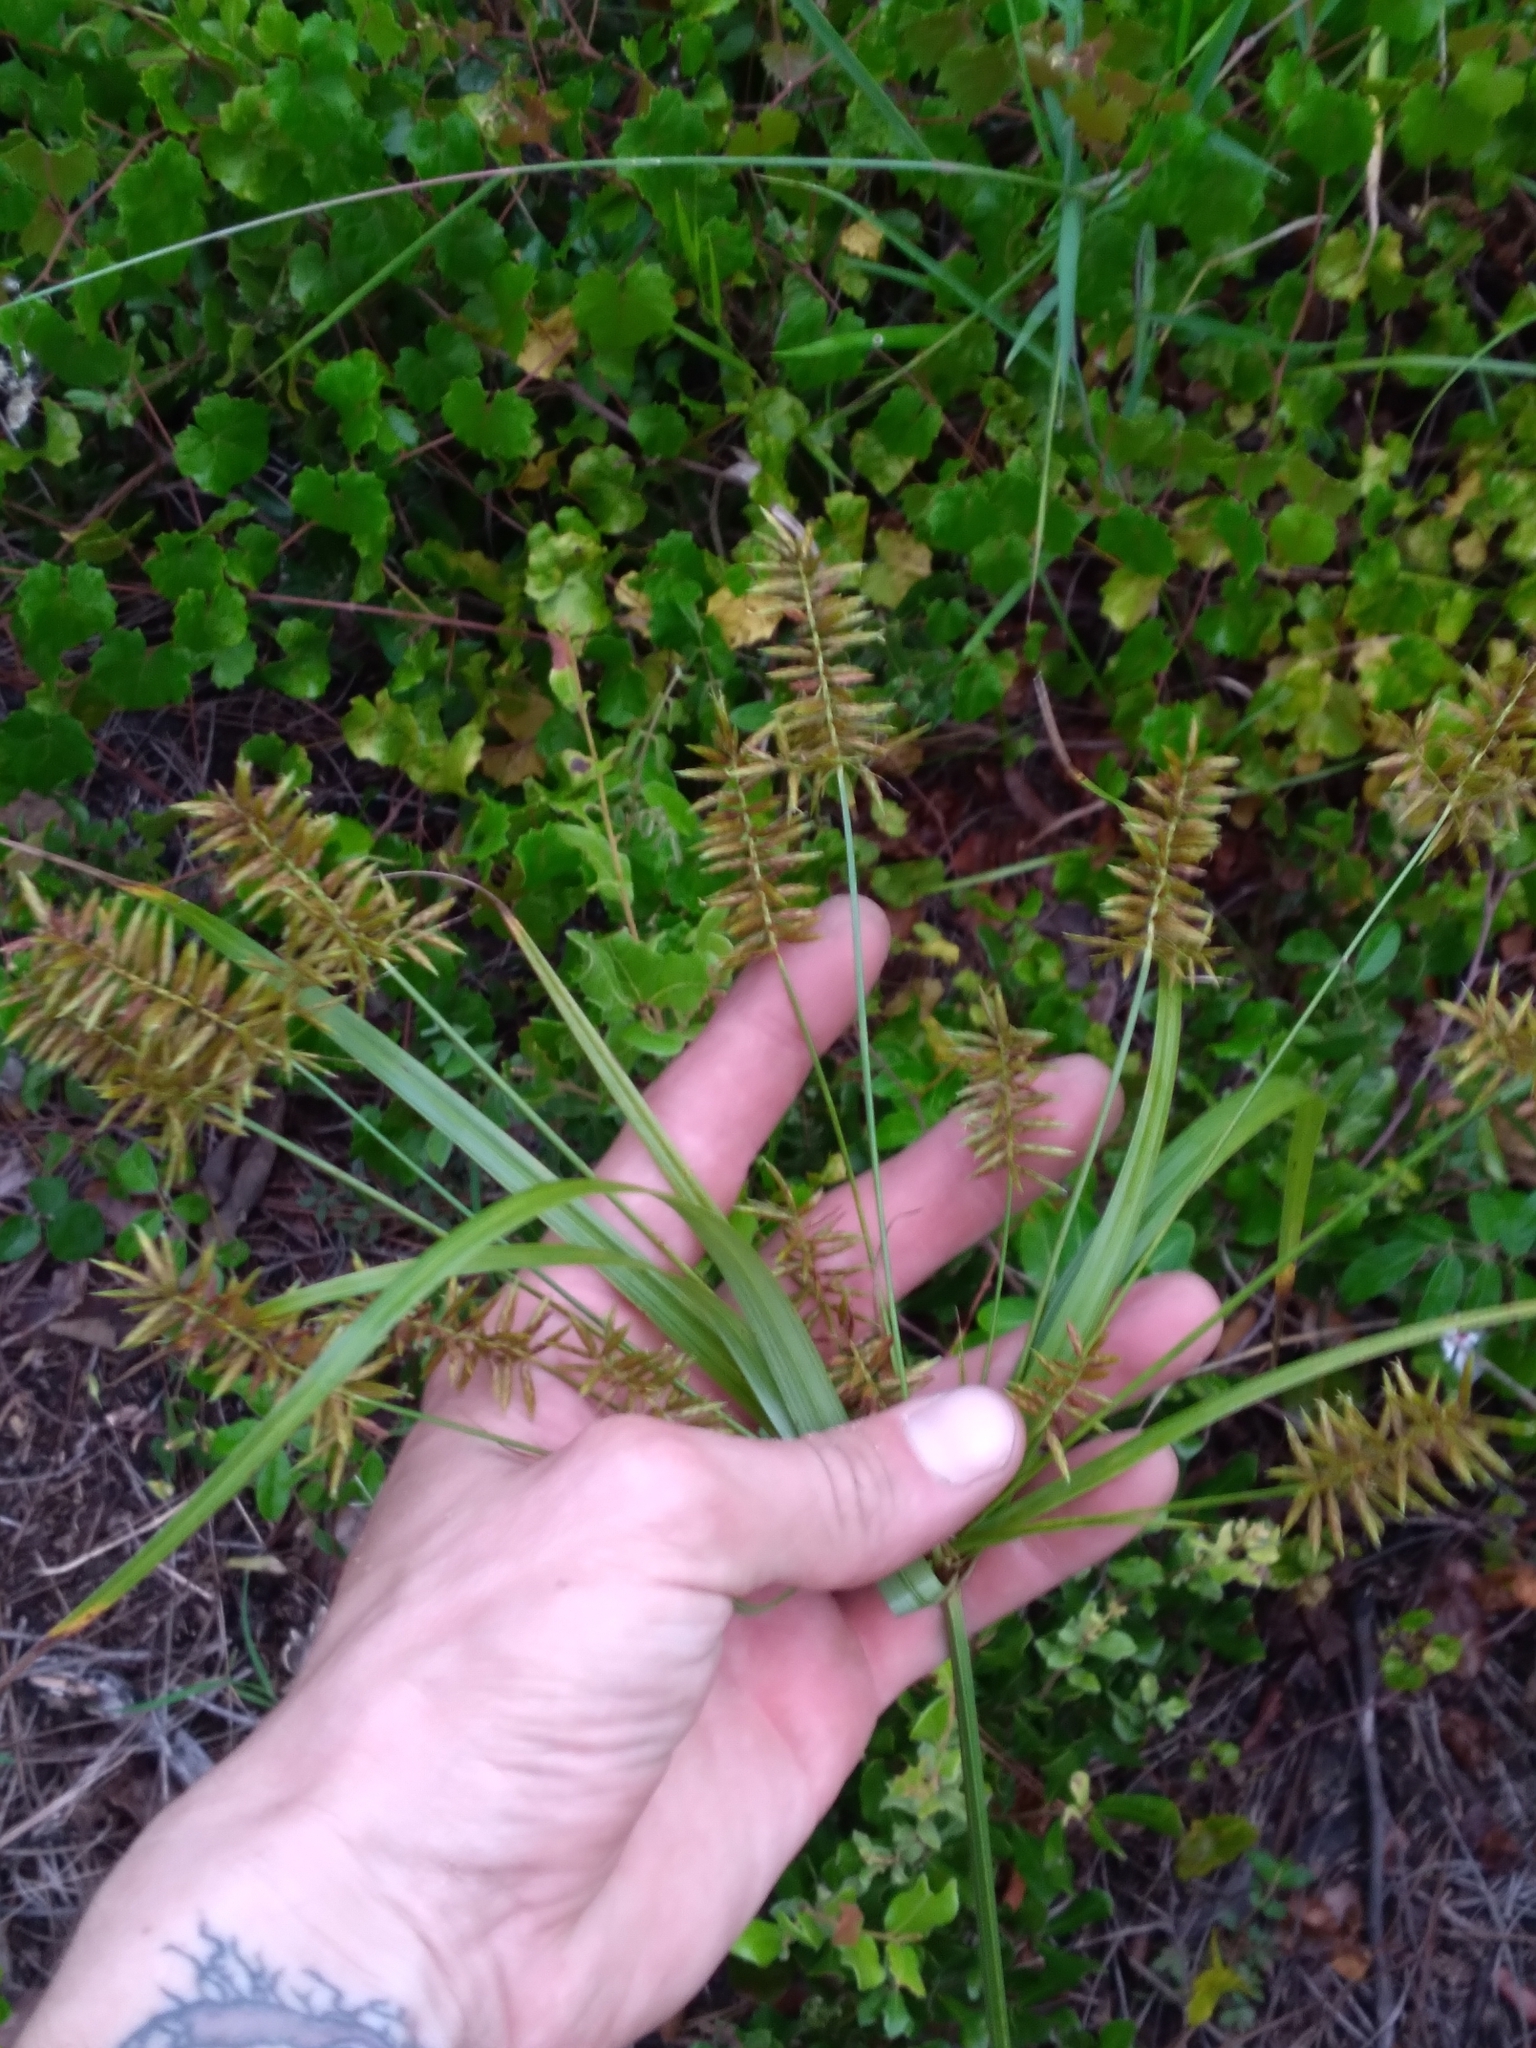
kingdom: Plantae
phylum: Tracheophyta
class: Liliopsida
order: Poales
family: Cyperaceae
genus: Cyperus
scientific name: Cyperus tetragonus
